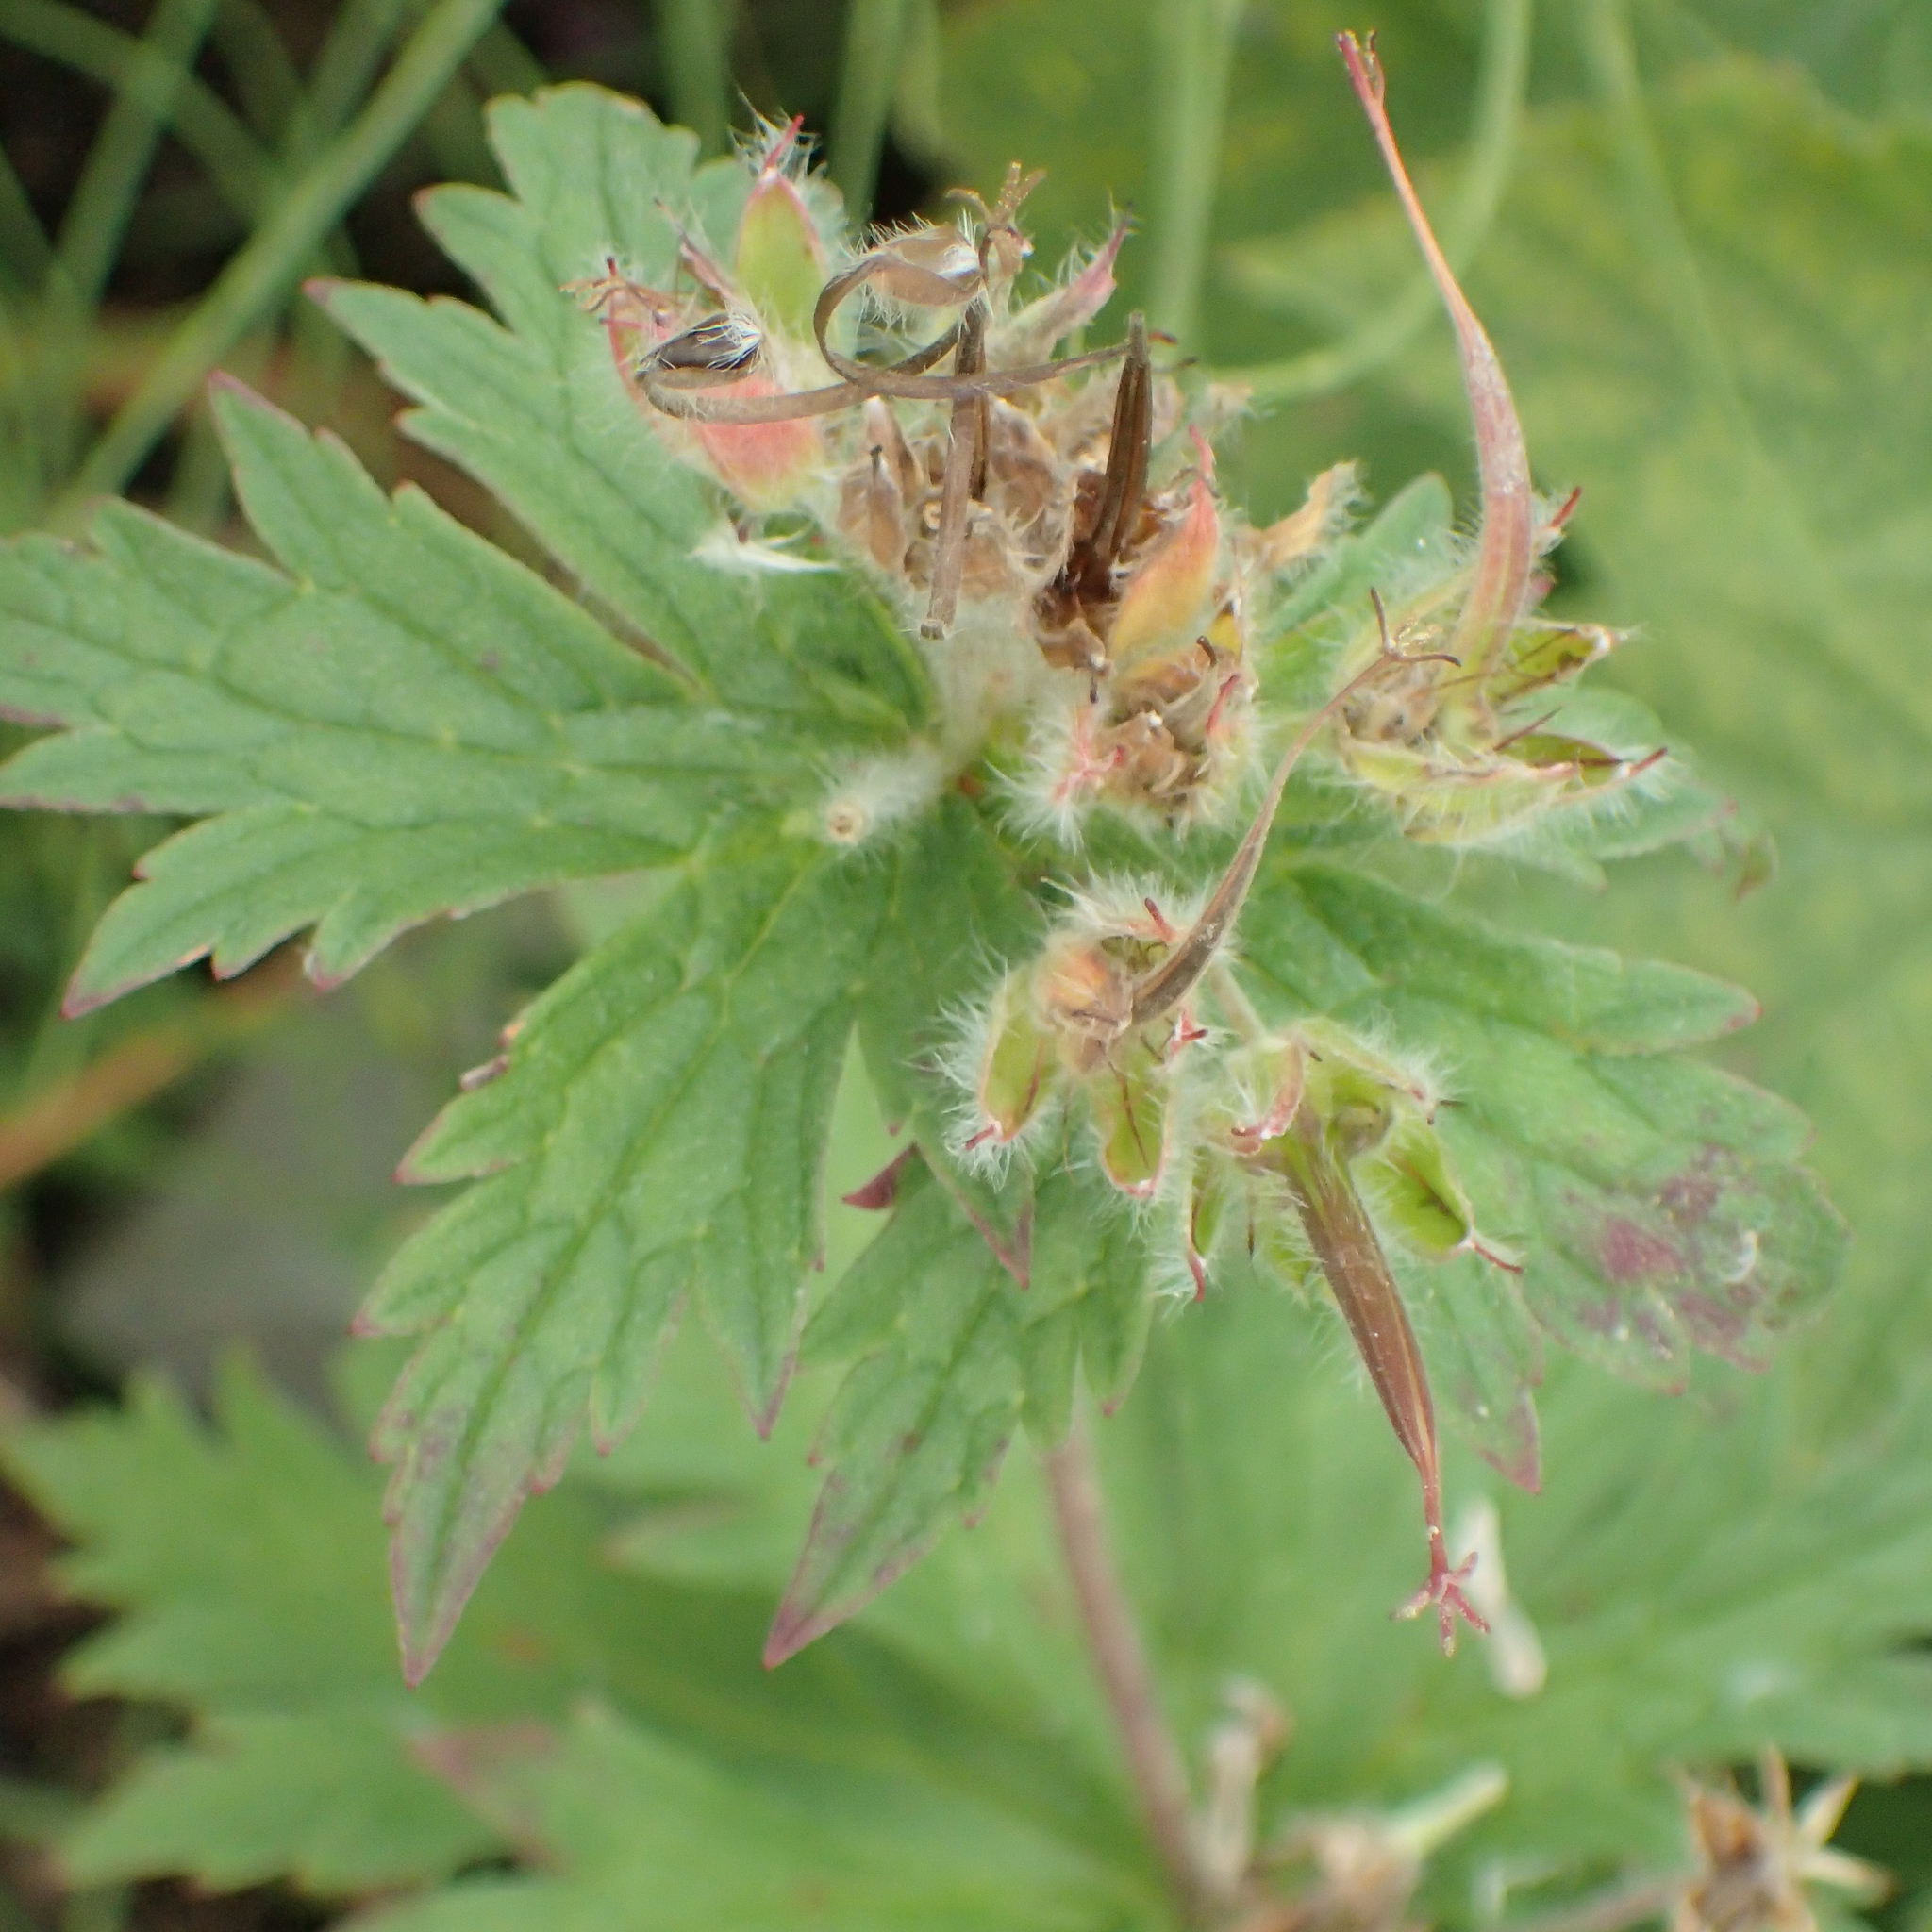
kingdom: Plantae
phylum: Tracheophyta
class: Magnoliopsida
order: Geraniales
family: Geraniaceae
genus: Geranium
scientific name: Geranium erianthum
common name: Northern crane's-bill
